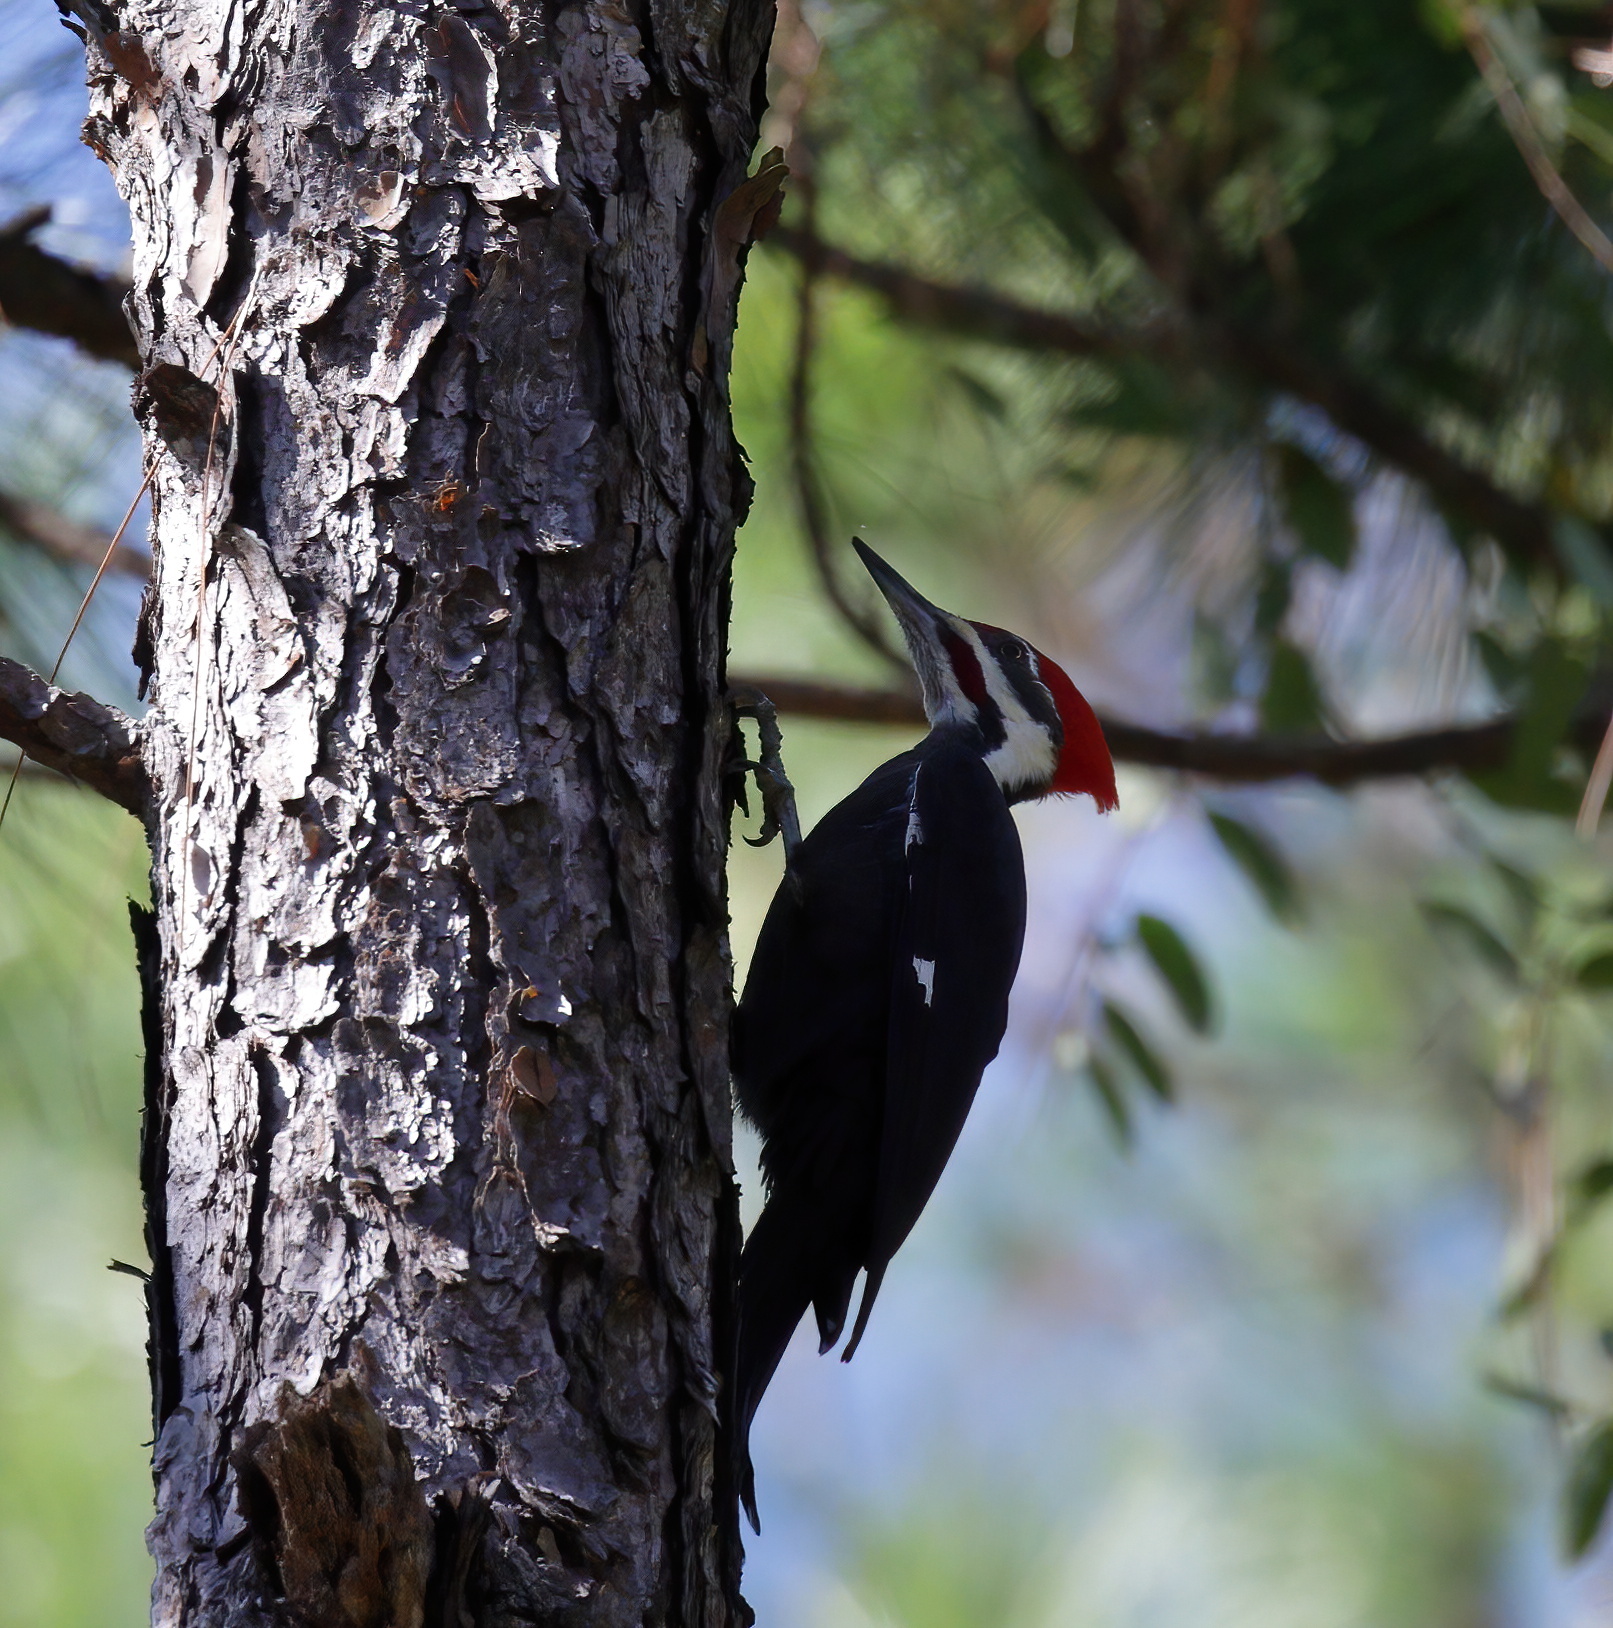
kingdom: Animalia
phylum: Chordata
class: Aves
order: Piciformes
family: Picidae
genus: Dryocopus
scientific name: Dryocopus pileatus
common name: Pileated woodpecker
